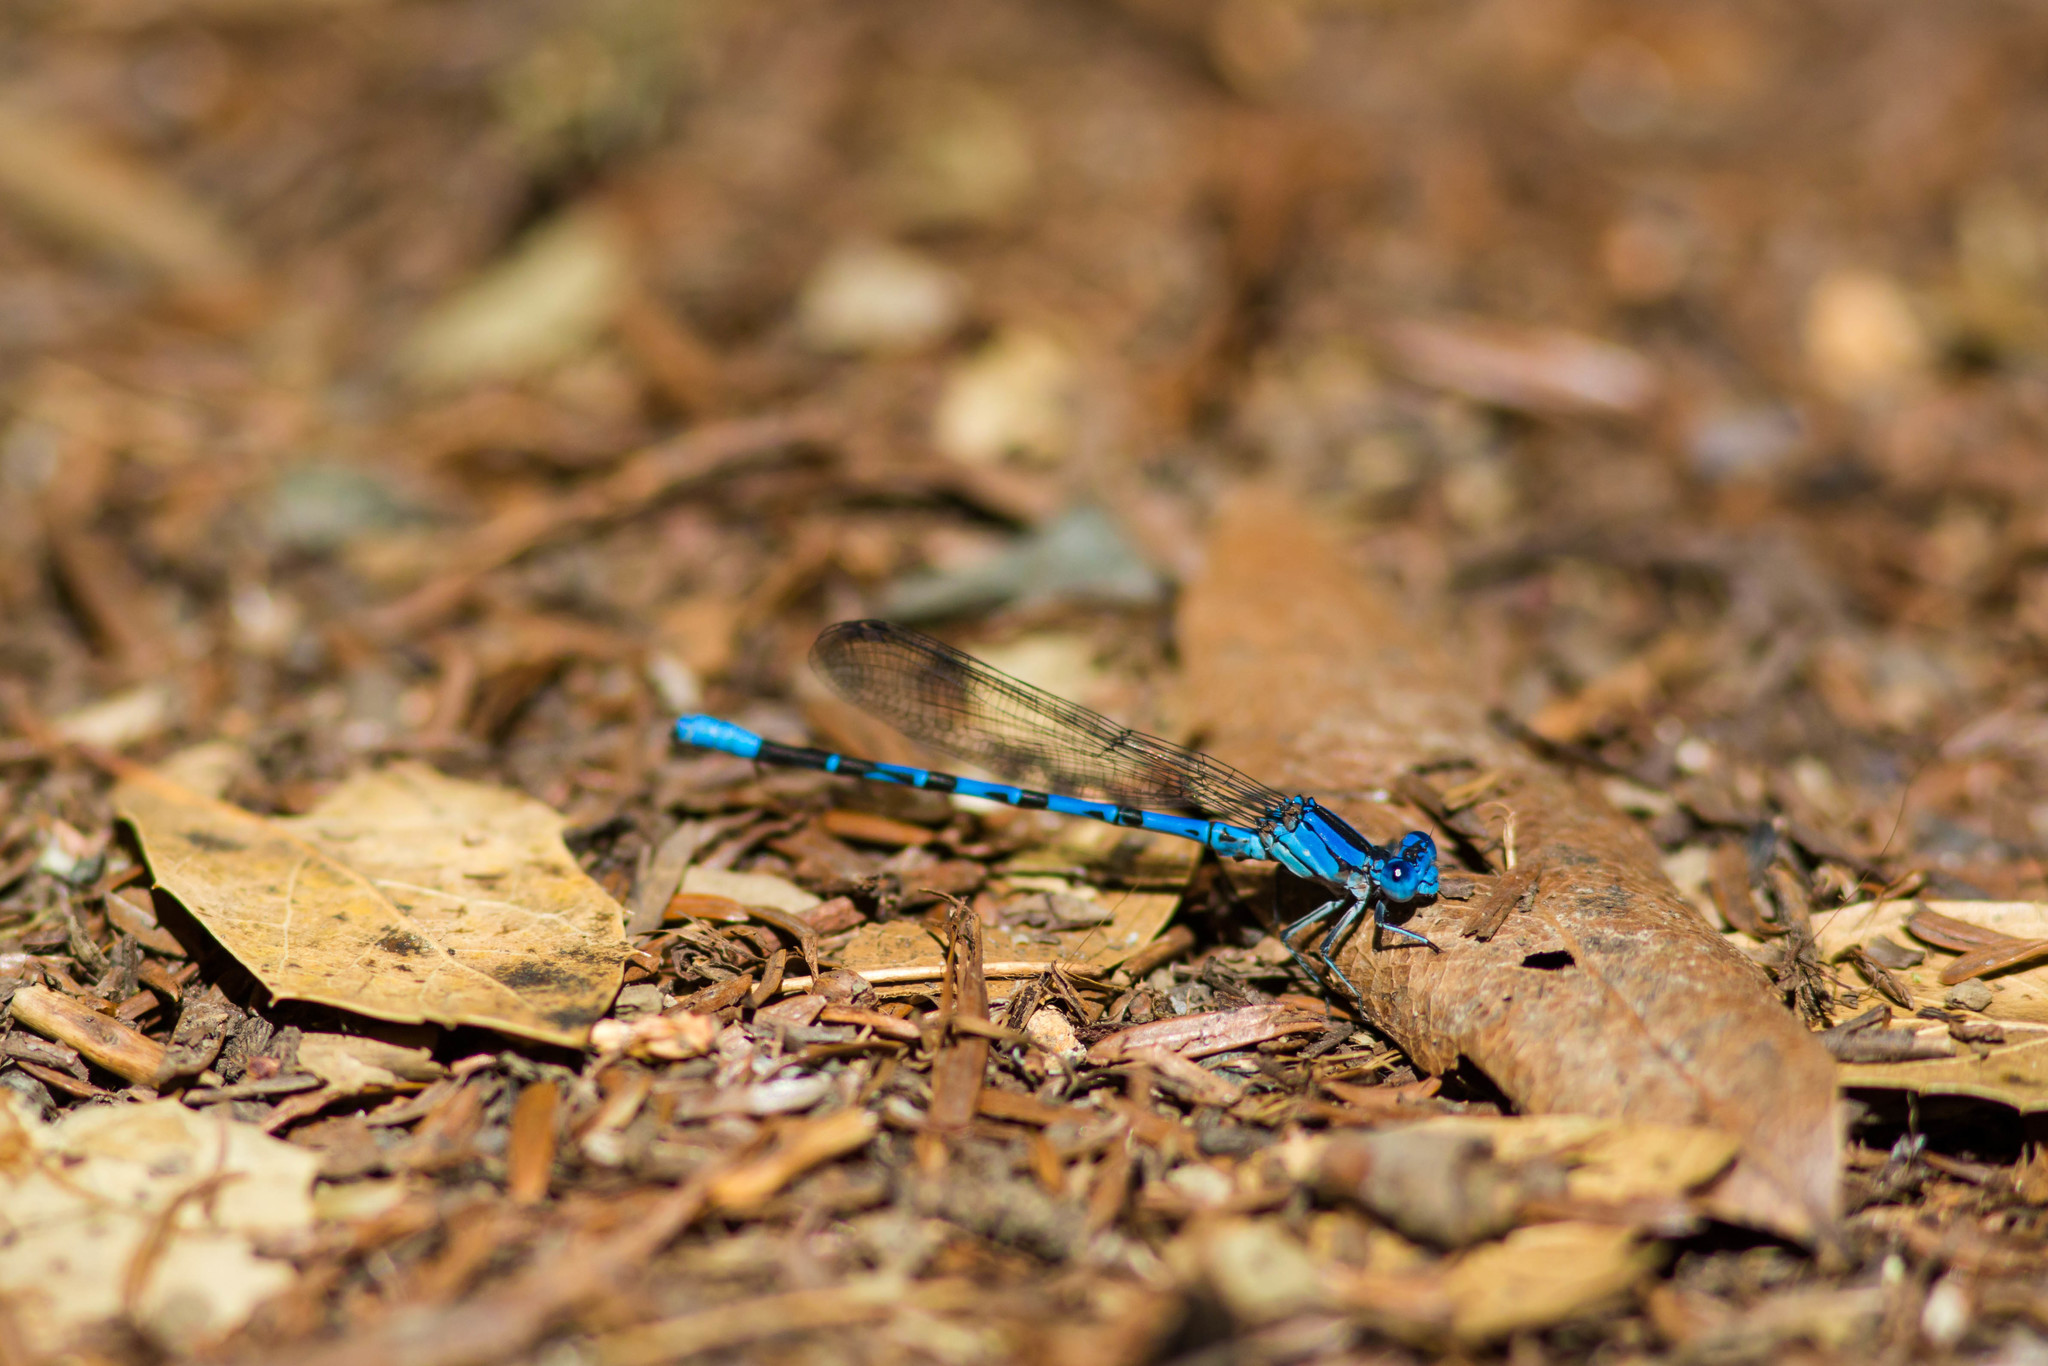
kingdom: Animalia
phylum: Arthropoda
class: Insecta
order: Odonata
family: Coenagrionidae
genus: Argia
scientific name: Argia vivida
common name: Vivid dancer
